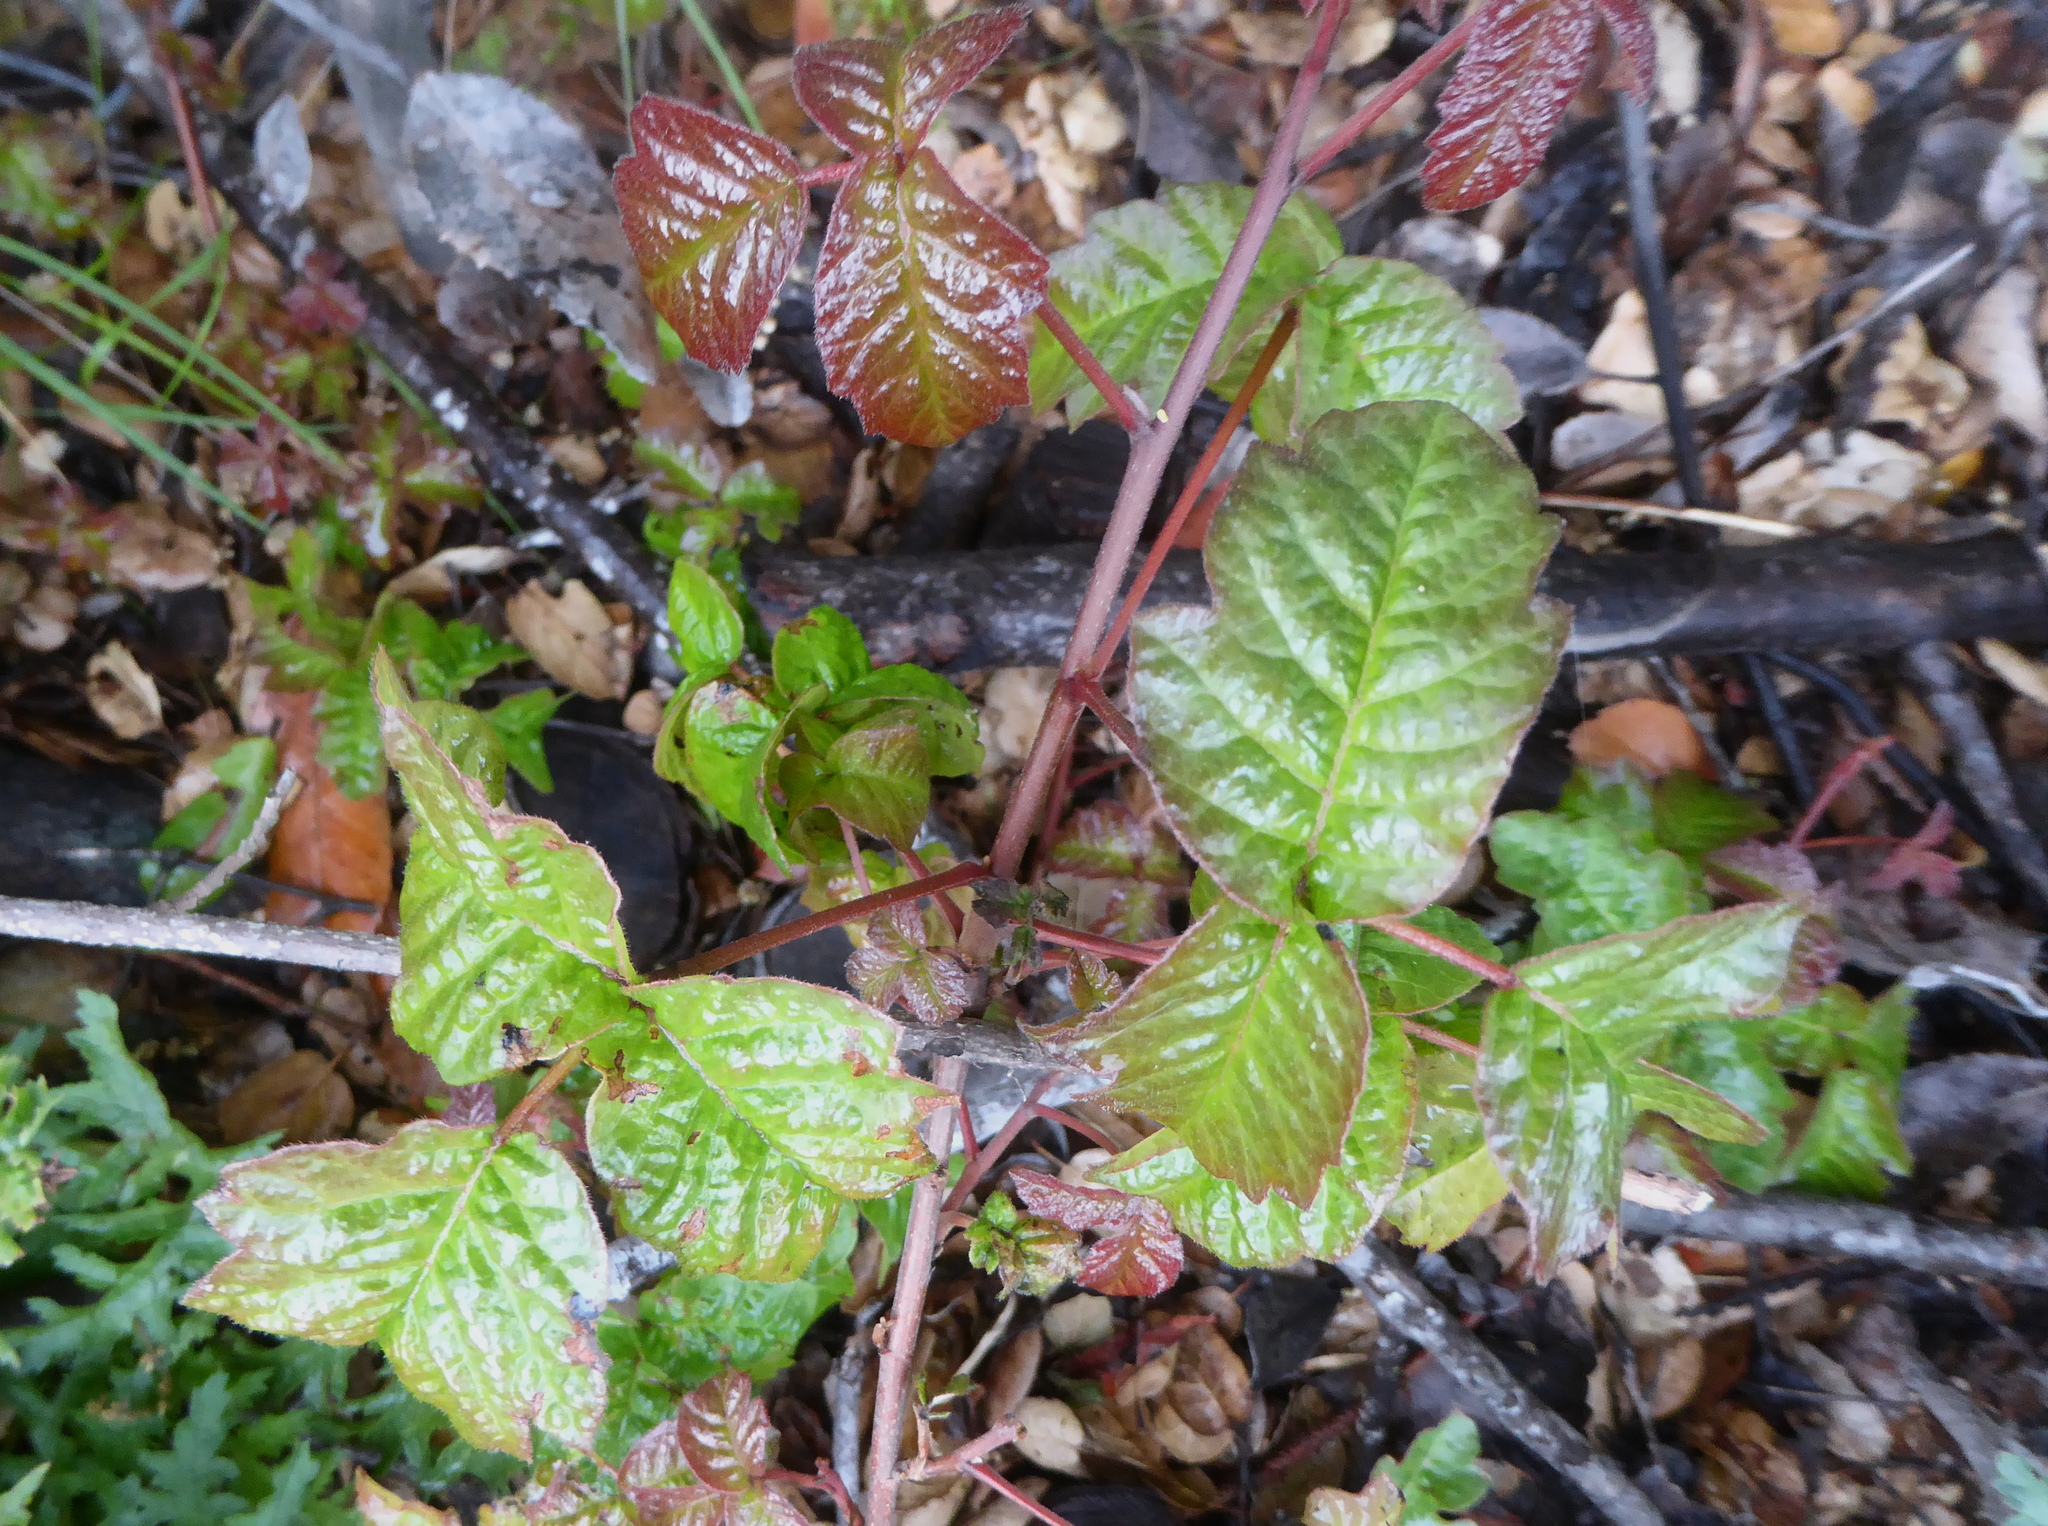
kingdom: Plantae
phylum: Tracheophyta
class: Magnoliopsida
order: Sapindales
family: Anacardiaceae
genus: Toxicodendron
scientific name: Toxicodendron diversilobum
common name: Pacific poison-oak
